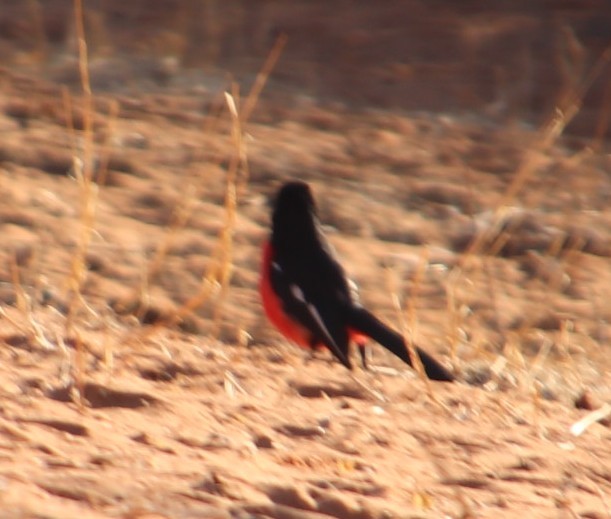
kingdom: Animalia
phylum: Chordata
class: Aves
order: Passeriformes
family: Malaconotidae
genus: Laniarius
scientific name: Laniarius atrococcineus
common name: Crimson-breasted shrike
